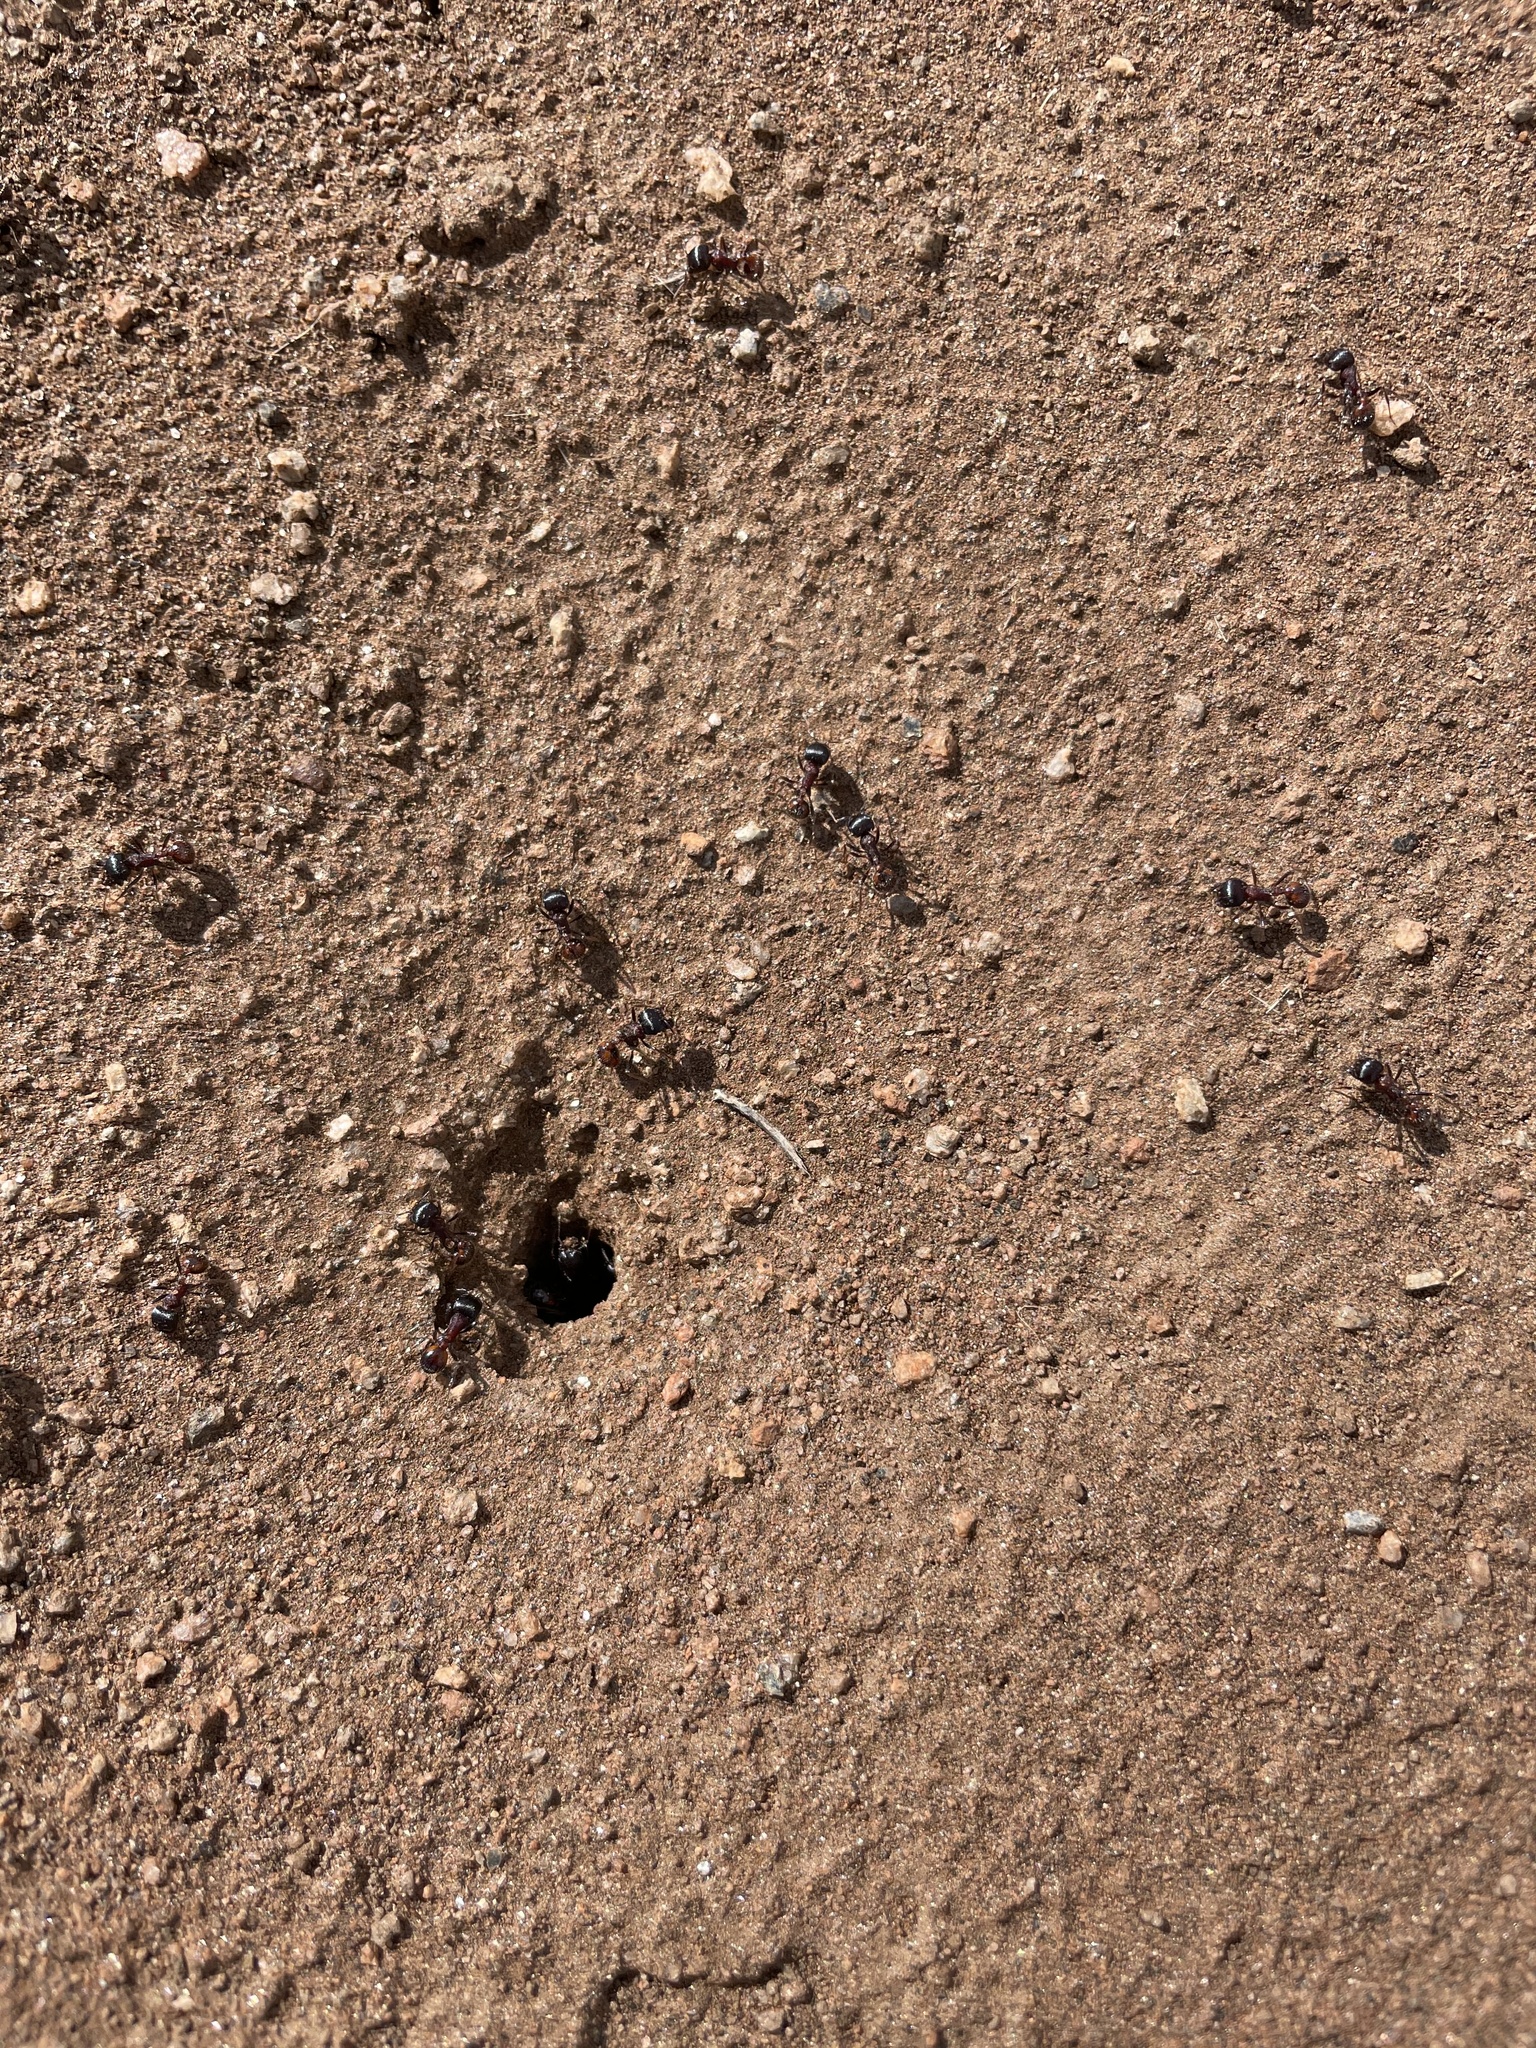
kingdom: Animalia
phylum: Arthropoda
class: Insecta
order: Hymenoptera
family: Formicidae
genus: Pogonomyrmex
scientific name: Pogonomyrmex rugosus
